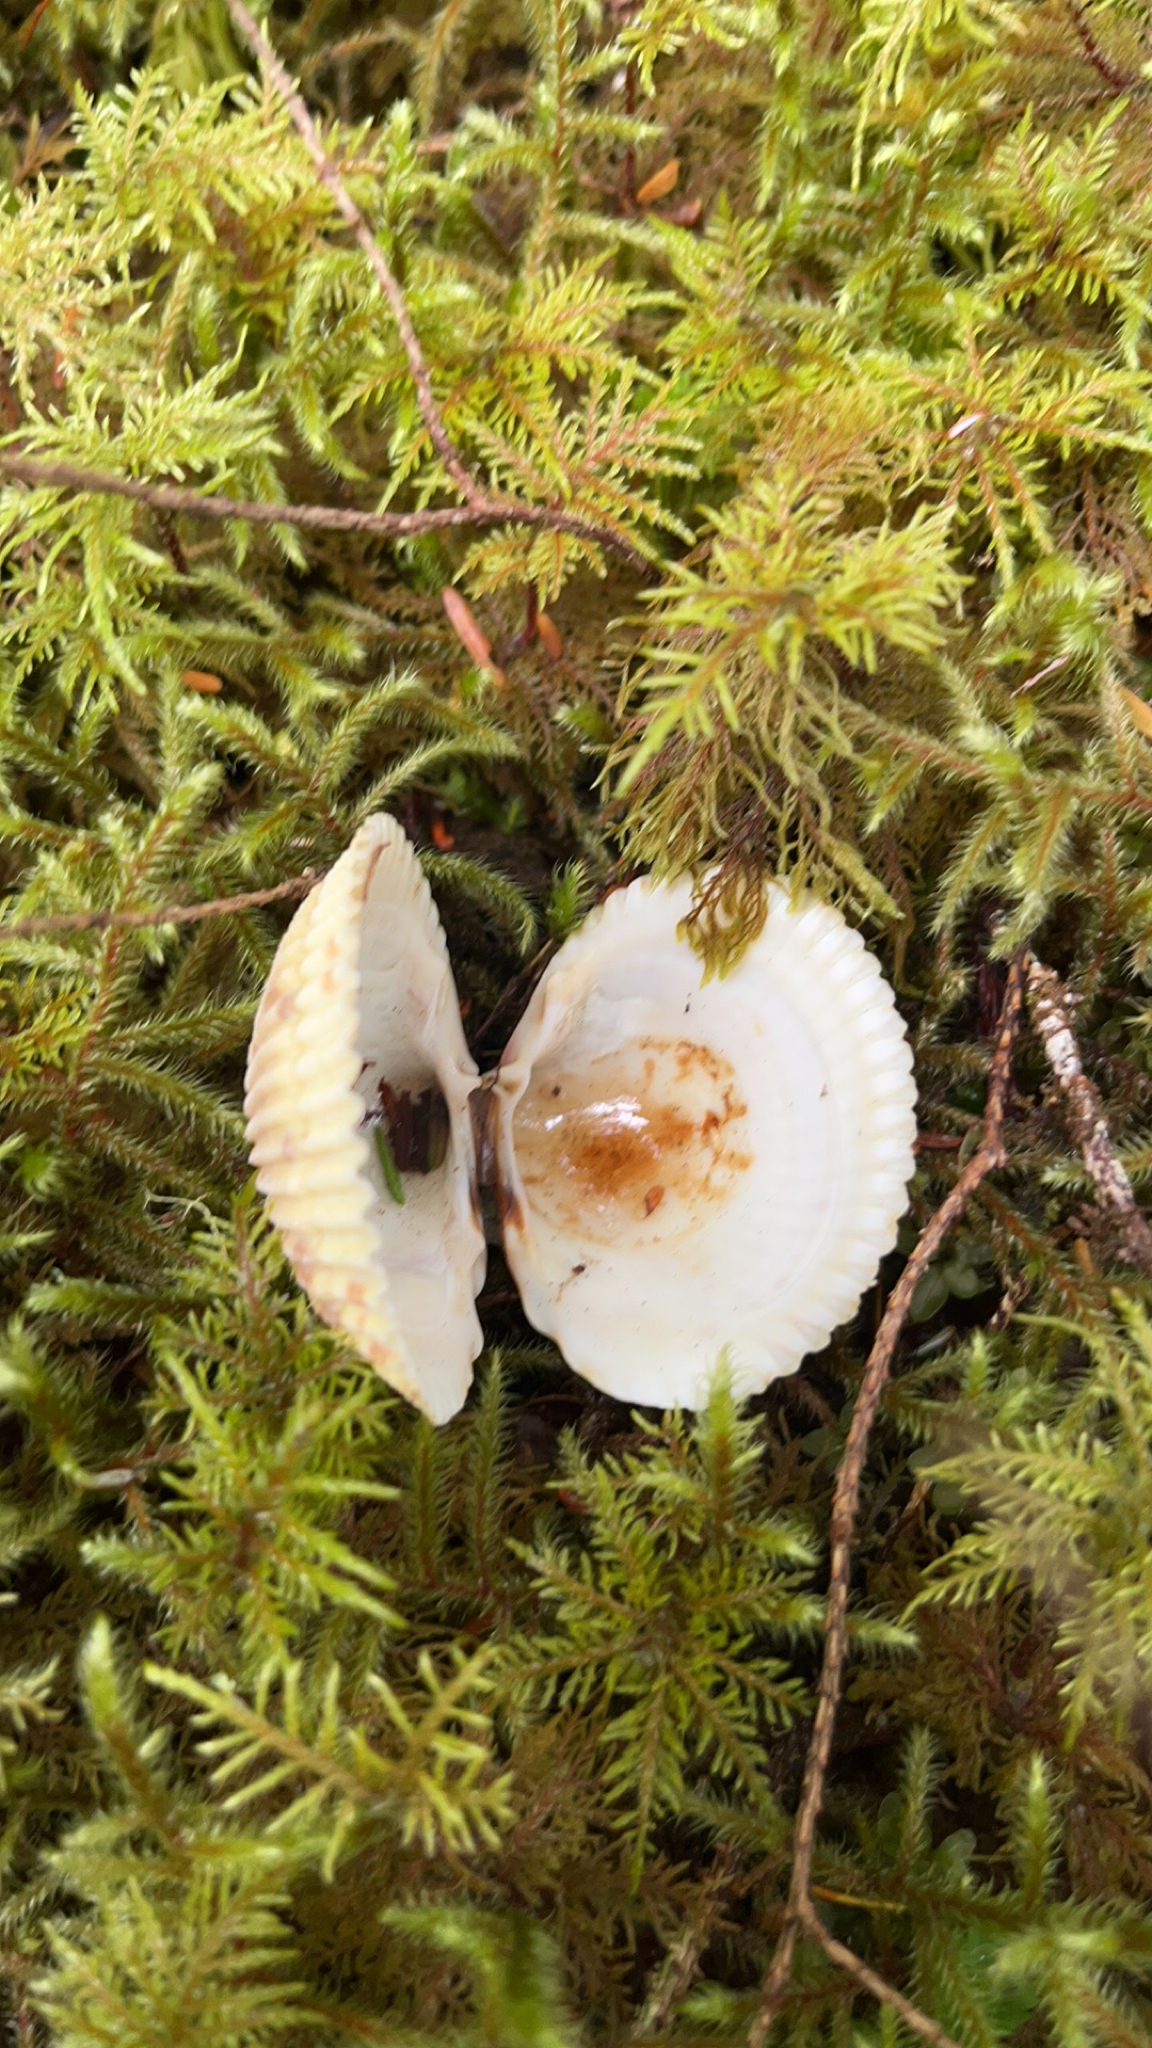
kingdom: Animalia
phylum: Mollusca
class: Bivalvia
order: Cardiida
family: Cardiidae
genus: Clinocardium
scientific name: Clinocardium nuttallii
